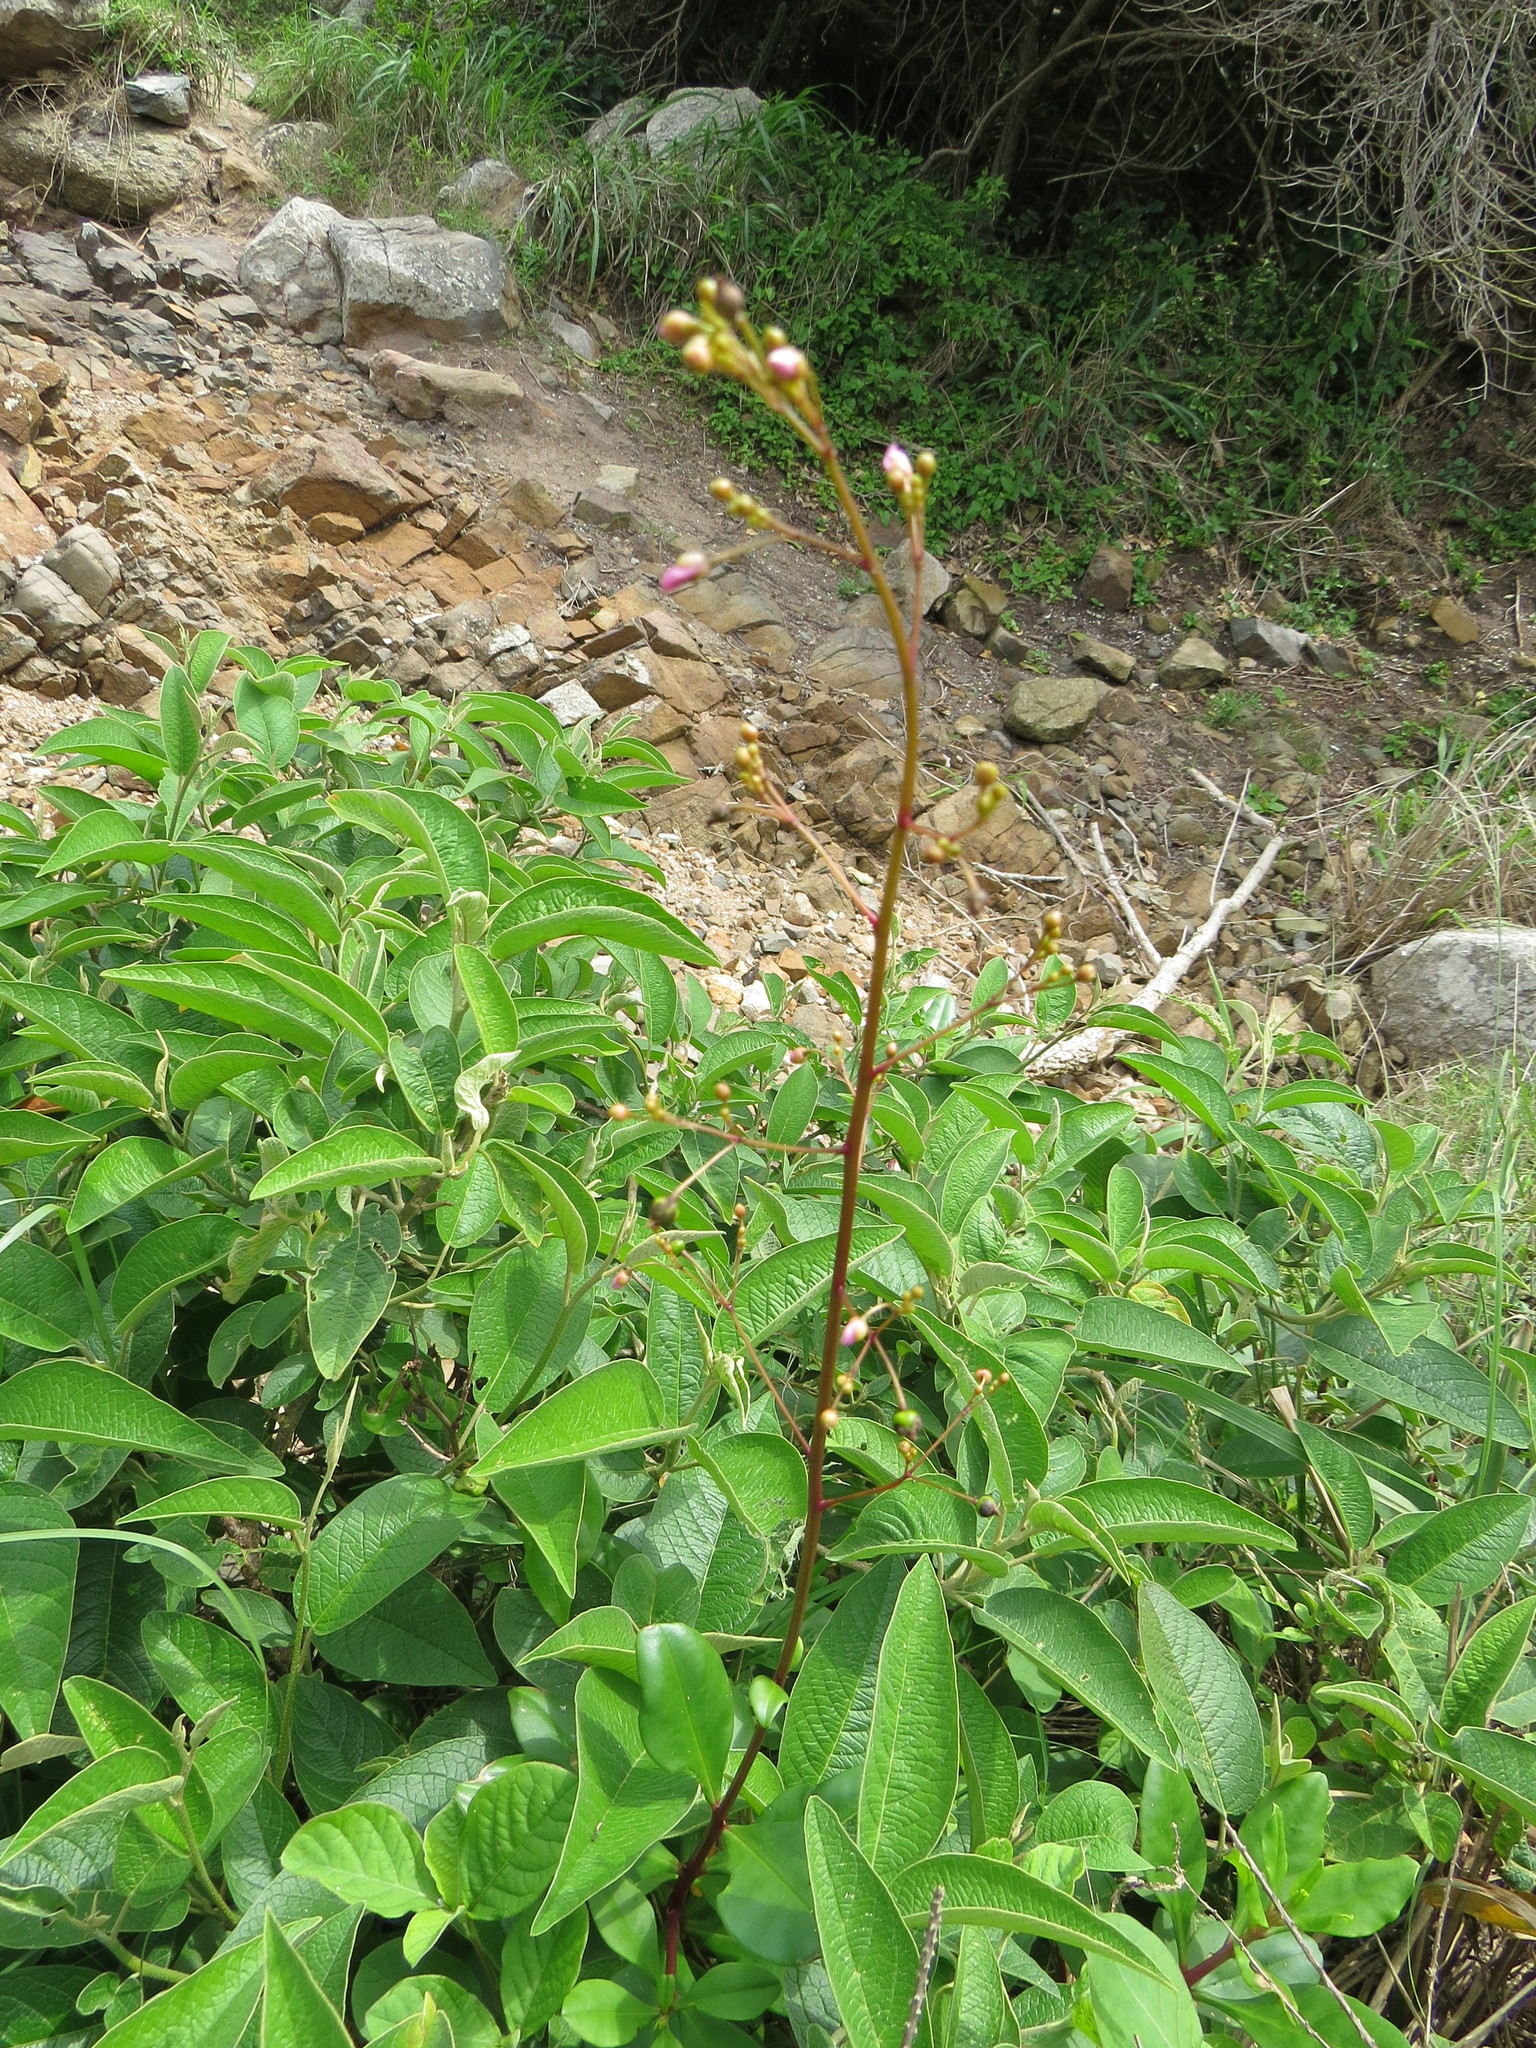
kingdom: Plantae
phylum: Tracheophyta
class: Magnoliopsida
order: Caryophyllales
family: Talinaceae
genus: Talinum
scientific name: Talinum paniculatum
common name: Jewels of opar
